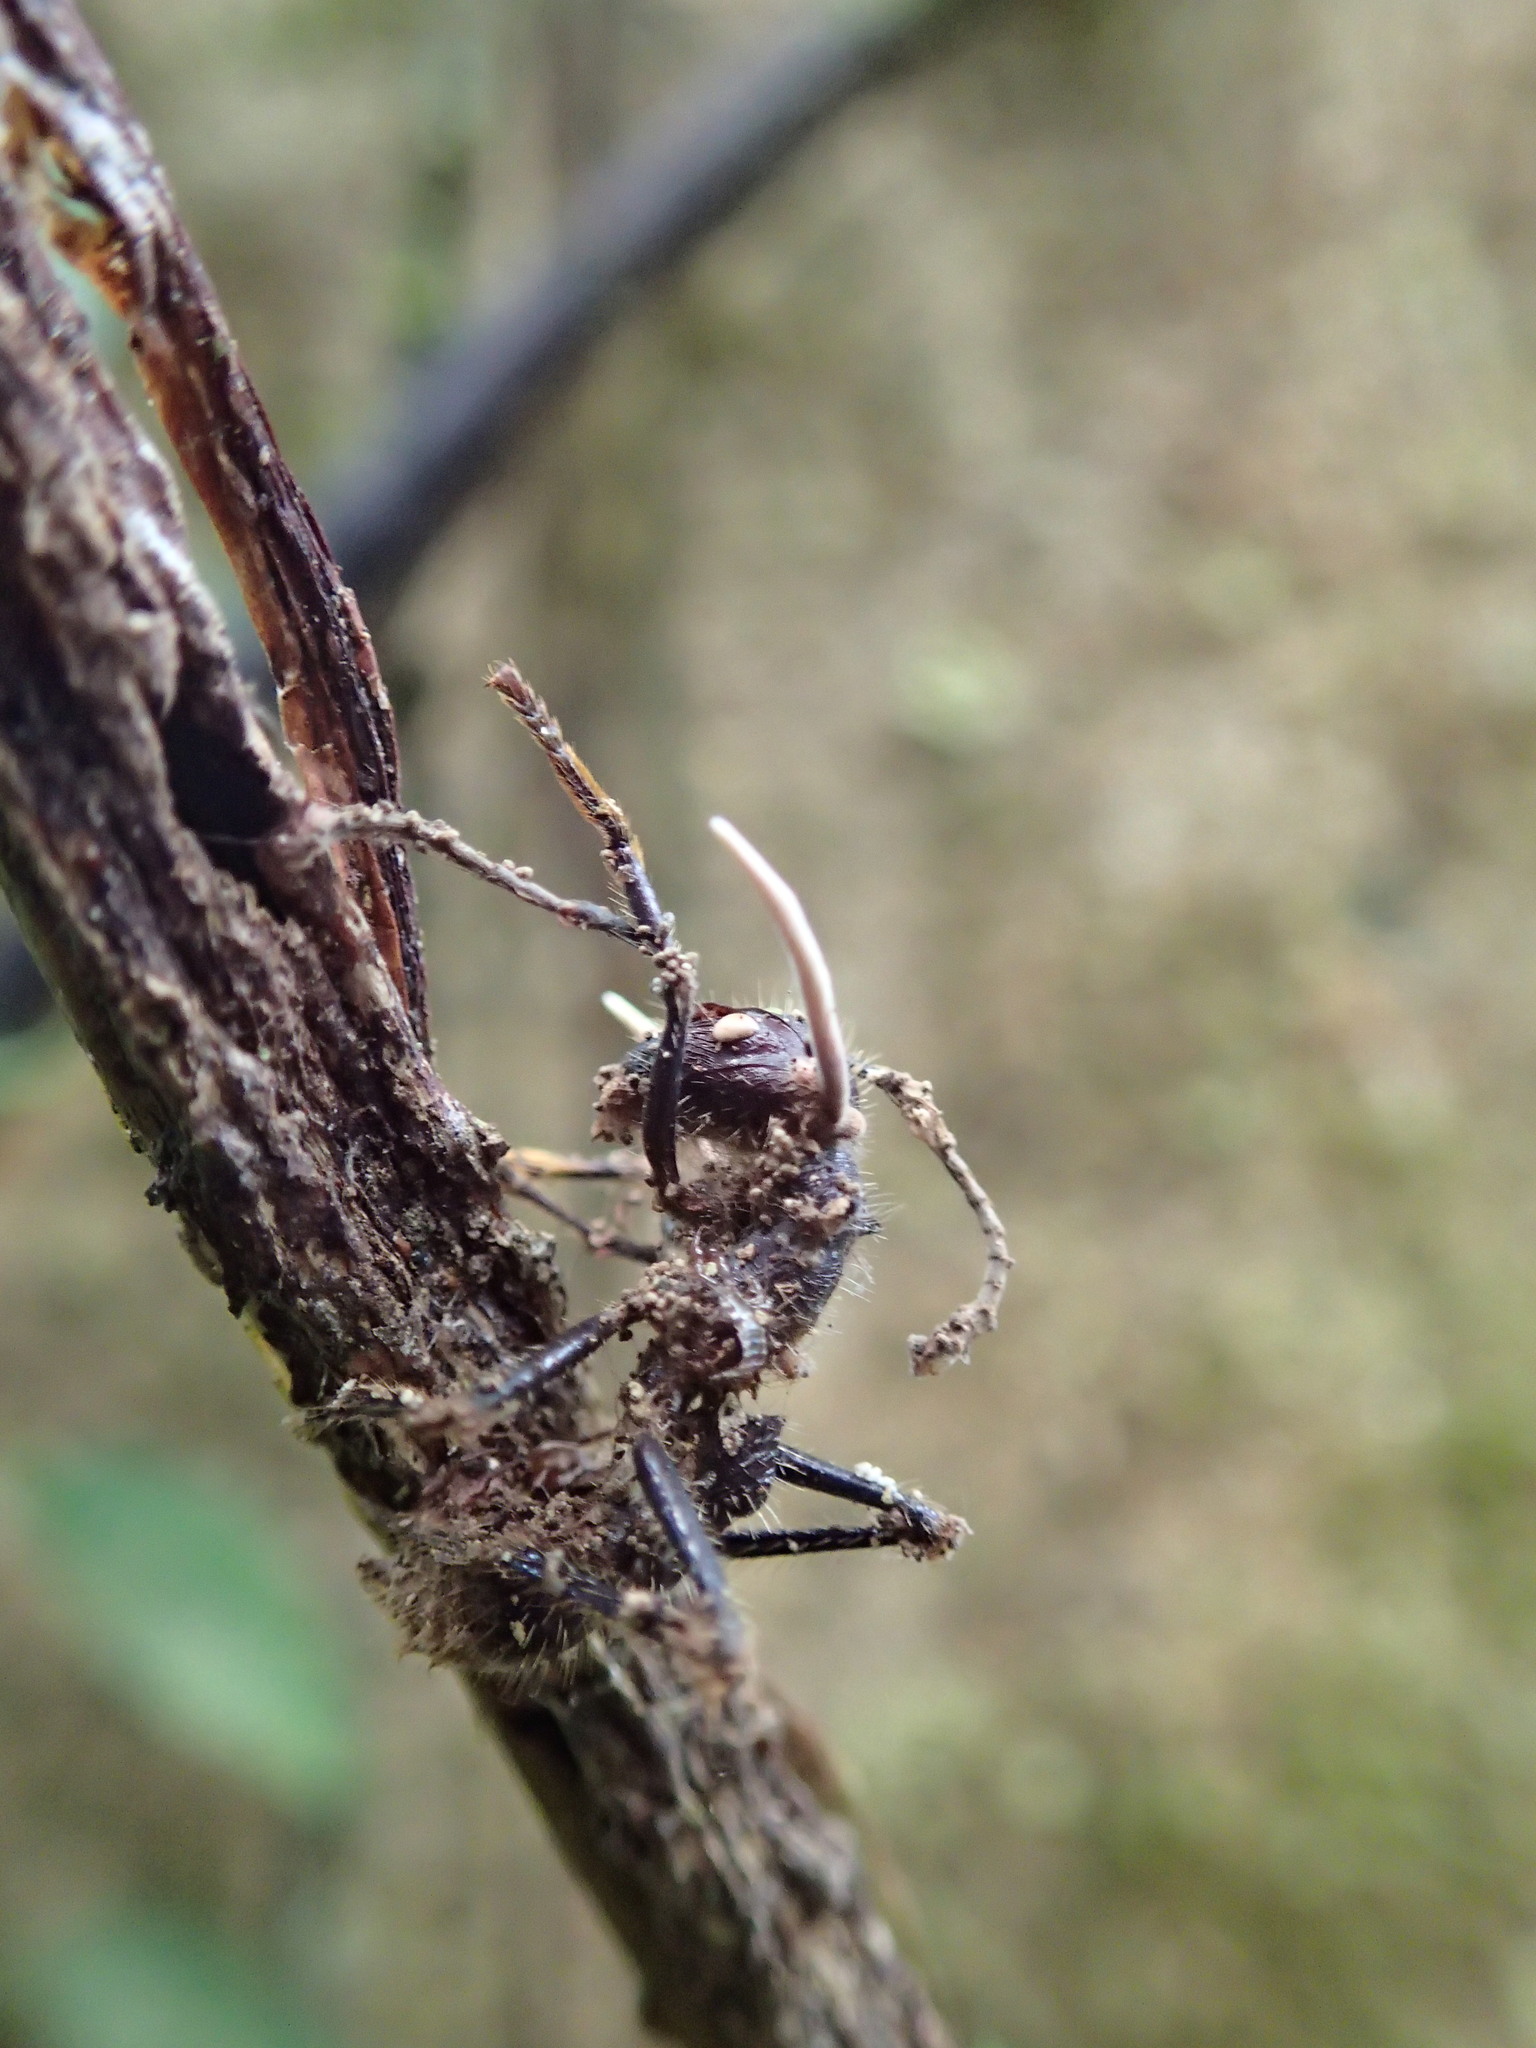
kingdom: Fungi
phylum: Ascomycota
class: Sordariomycetes
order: Hypocreales
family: Ophiocordycipitaceae
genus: Ophiocordyceps
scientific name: Ophiocordyceps ponerinarum
